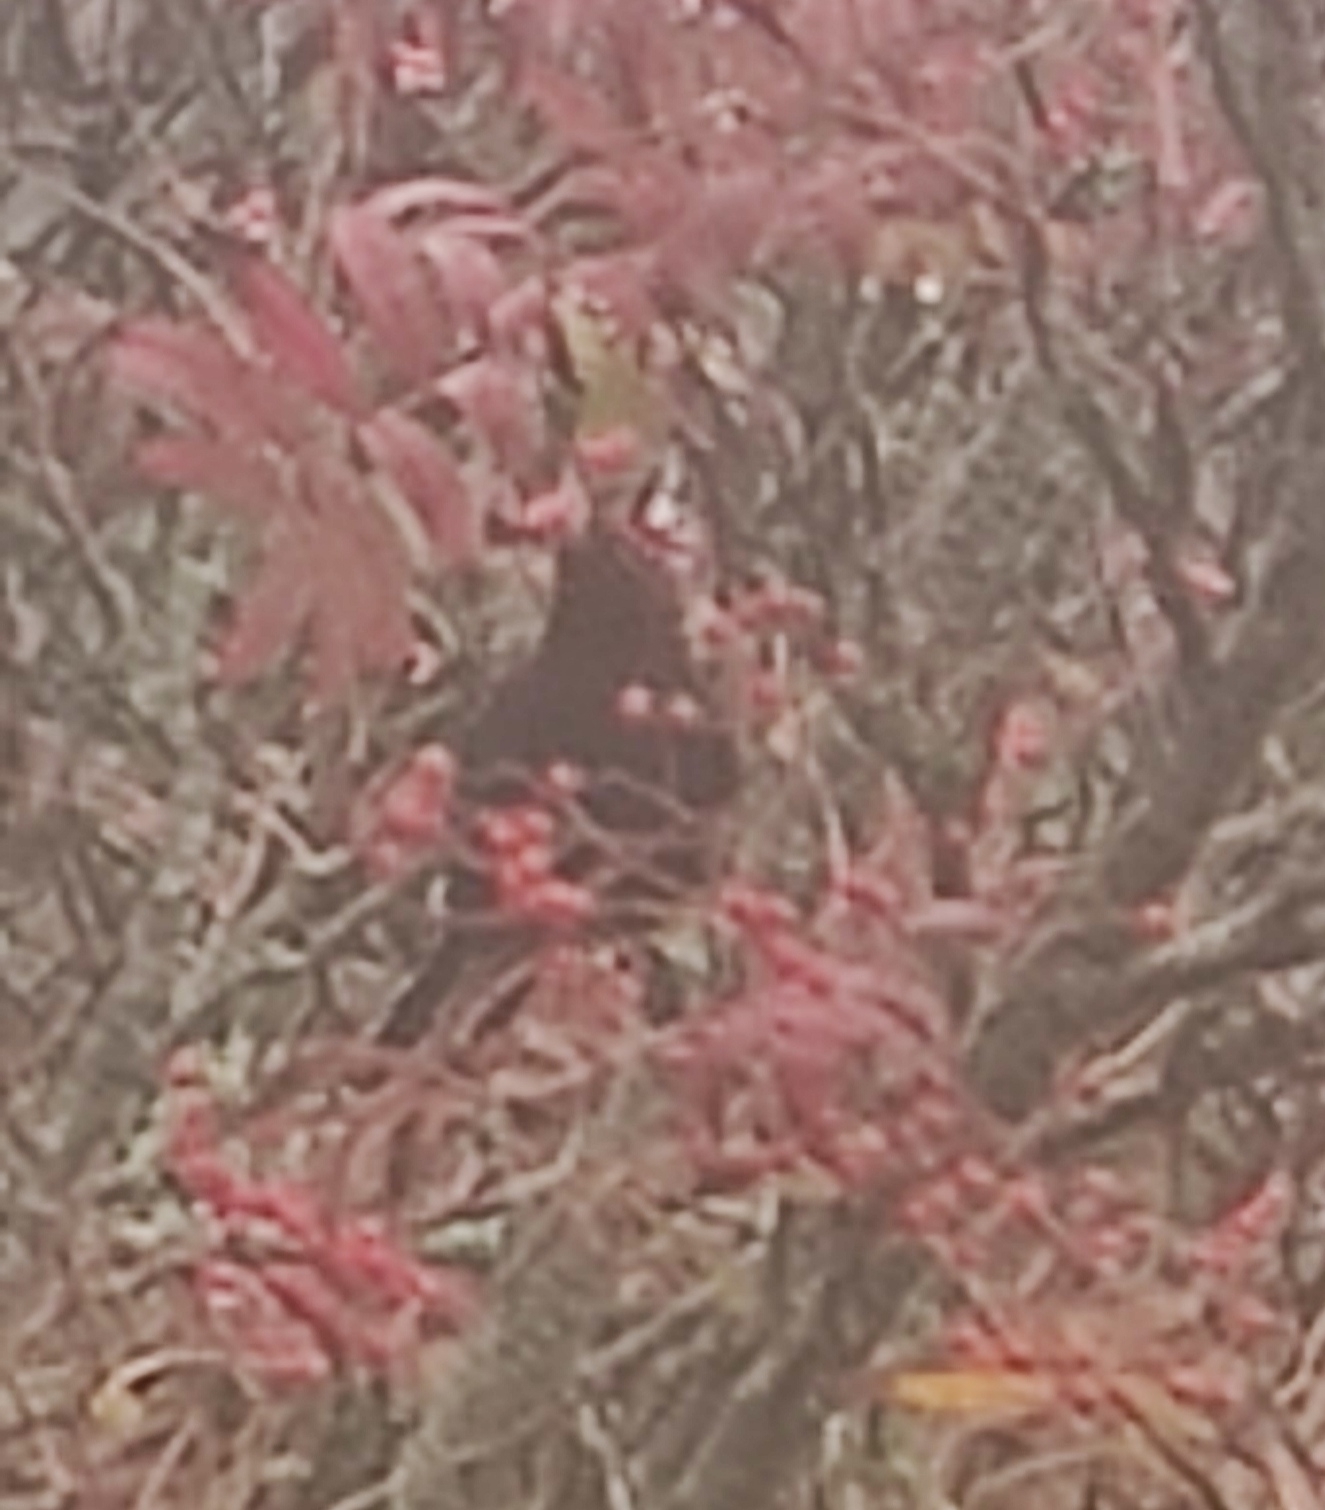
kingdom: Animalia
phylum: Chordata
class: Aves
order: Passeriformes
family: Turdidae
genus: Turdus
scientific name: Turdus merula
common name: Common blackbird
